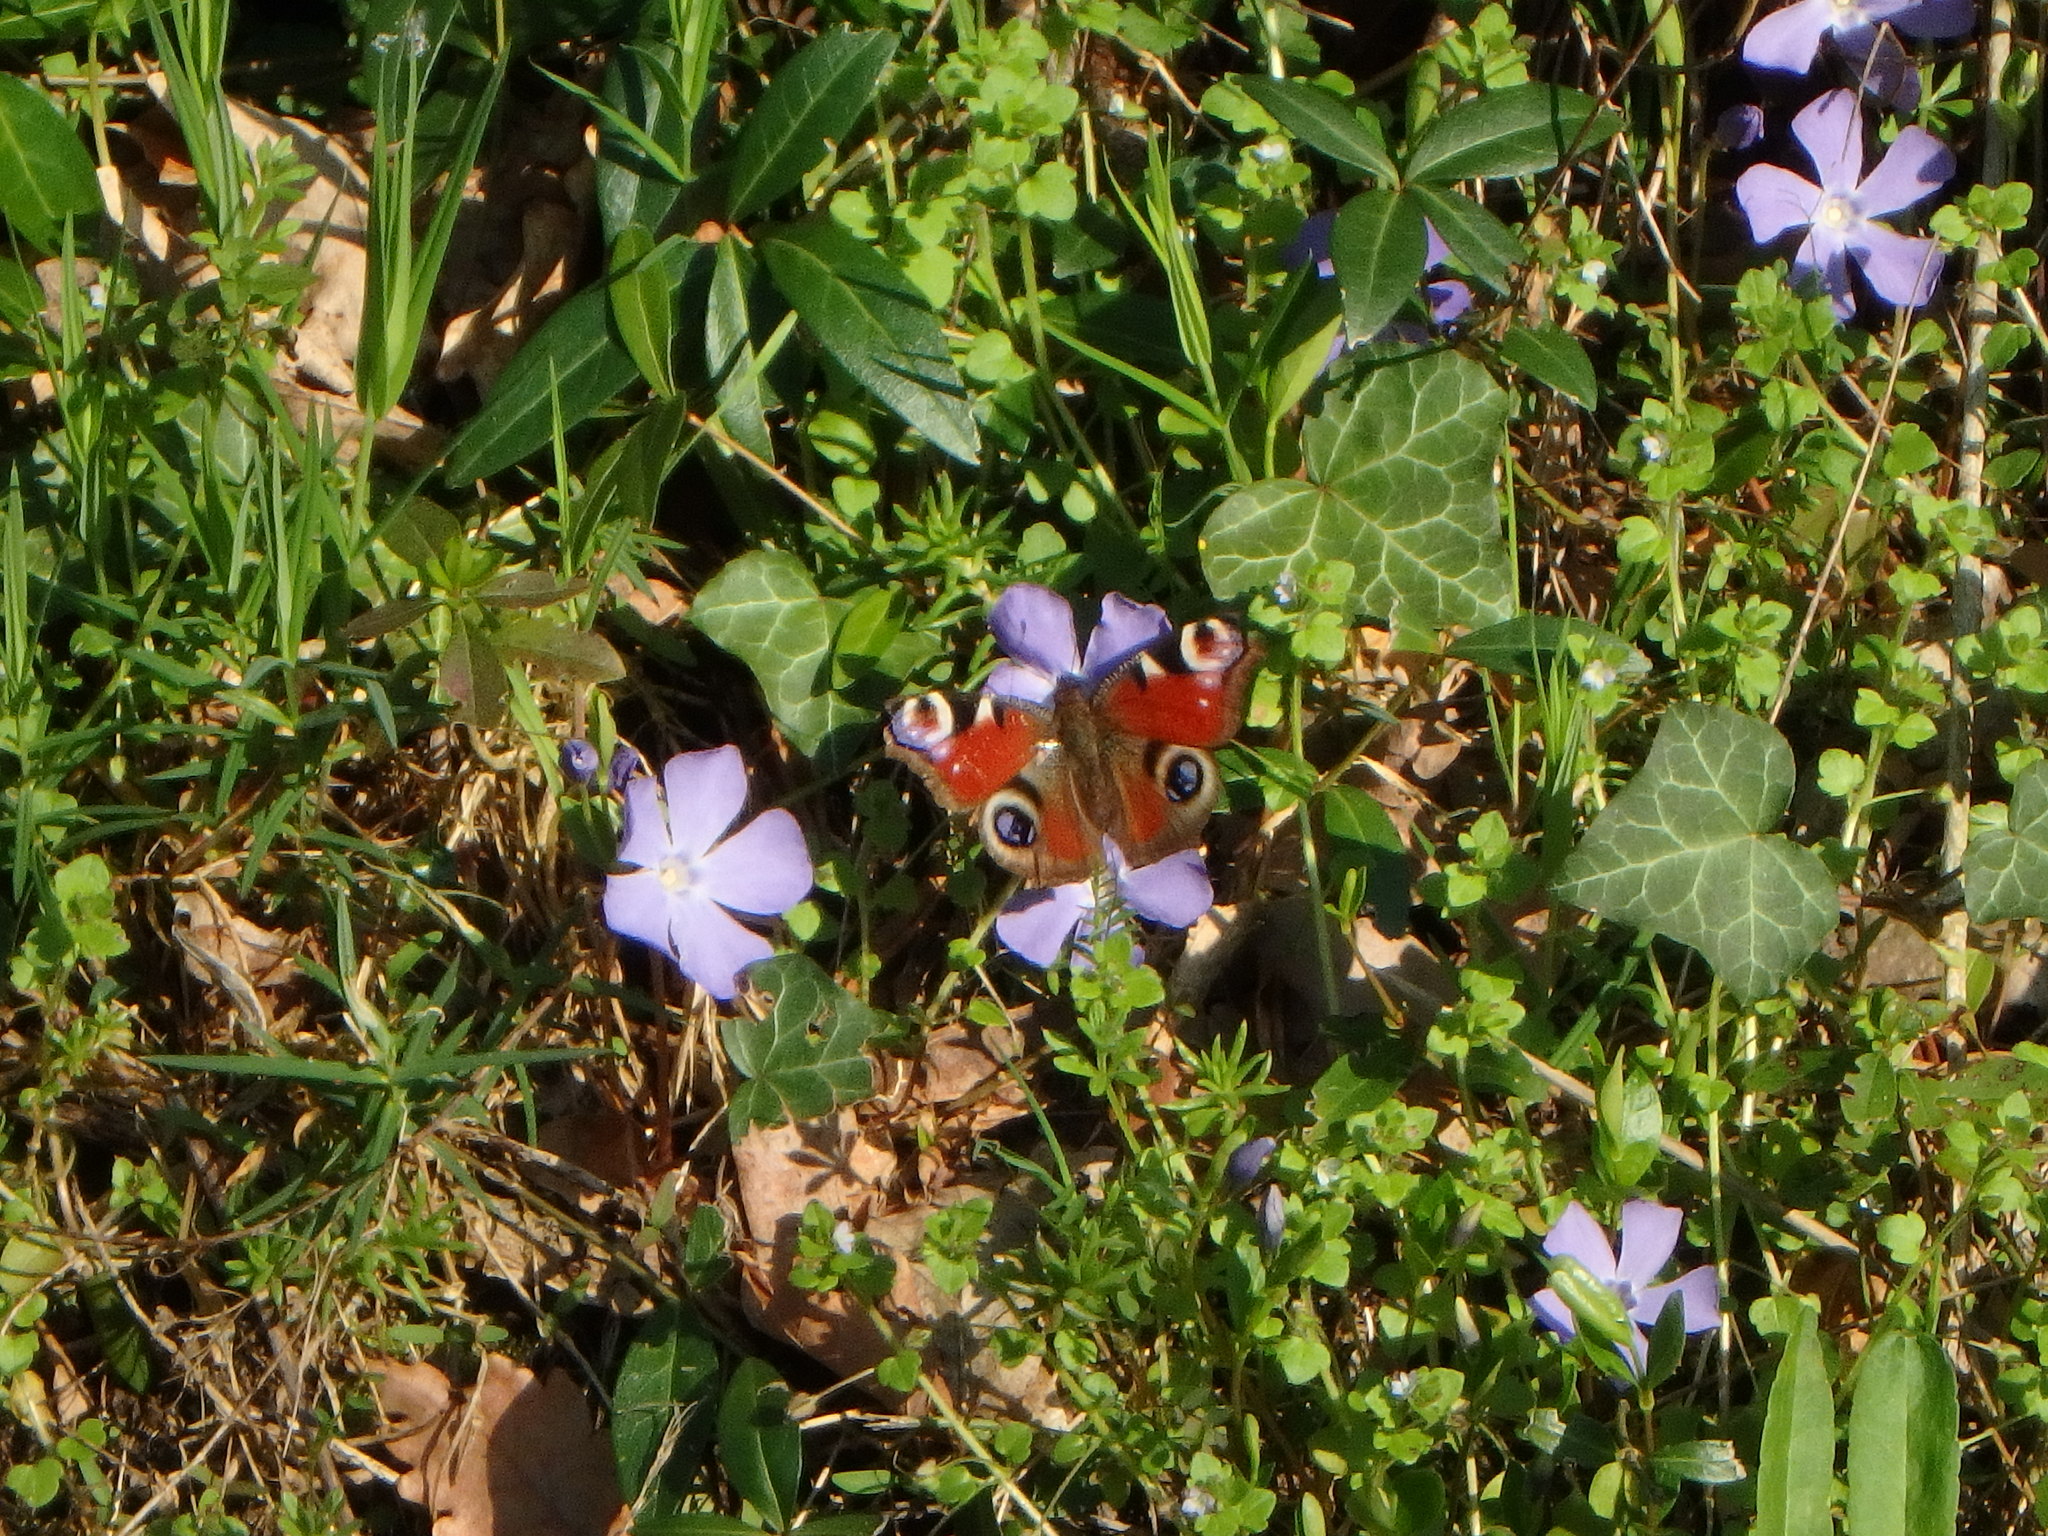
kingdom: Animalia
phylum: Arthropoda
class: Insecta
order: Lepidoptera
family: Nymphalidae
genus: Aglais
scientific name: Aglais io
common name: Peacock
